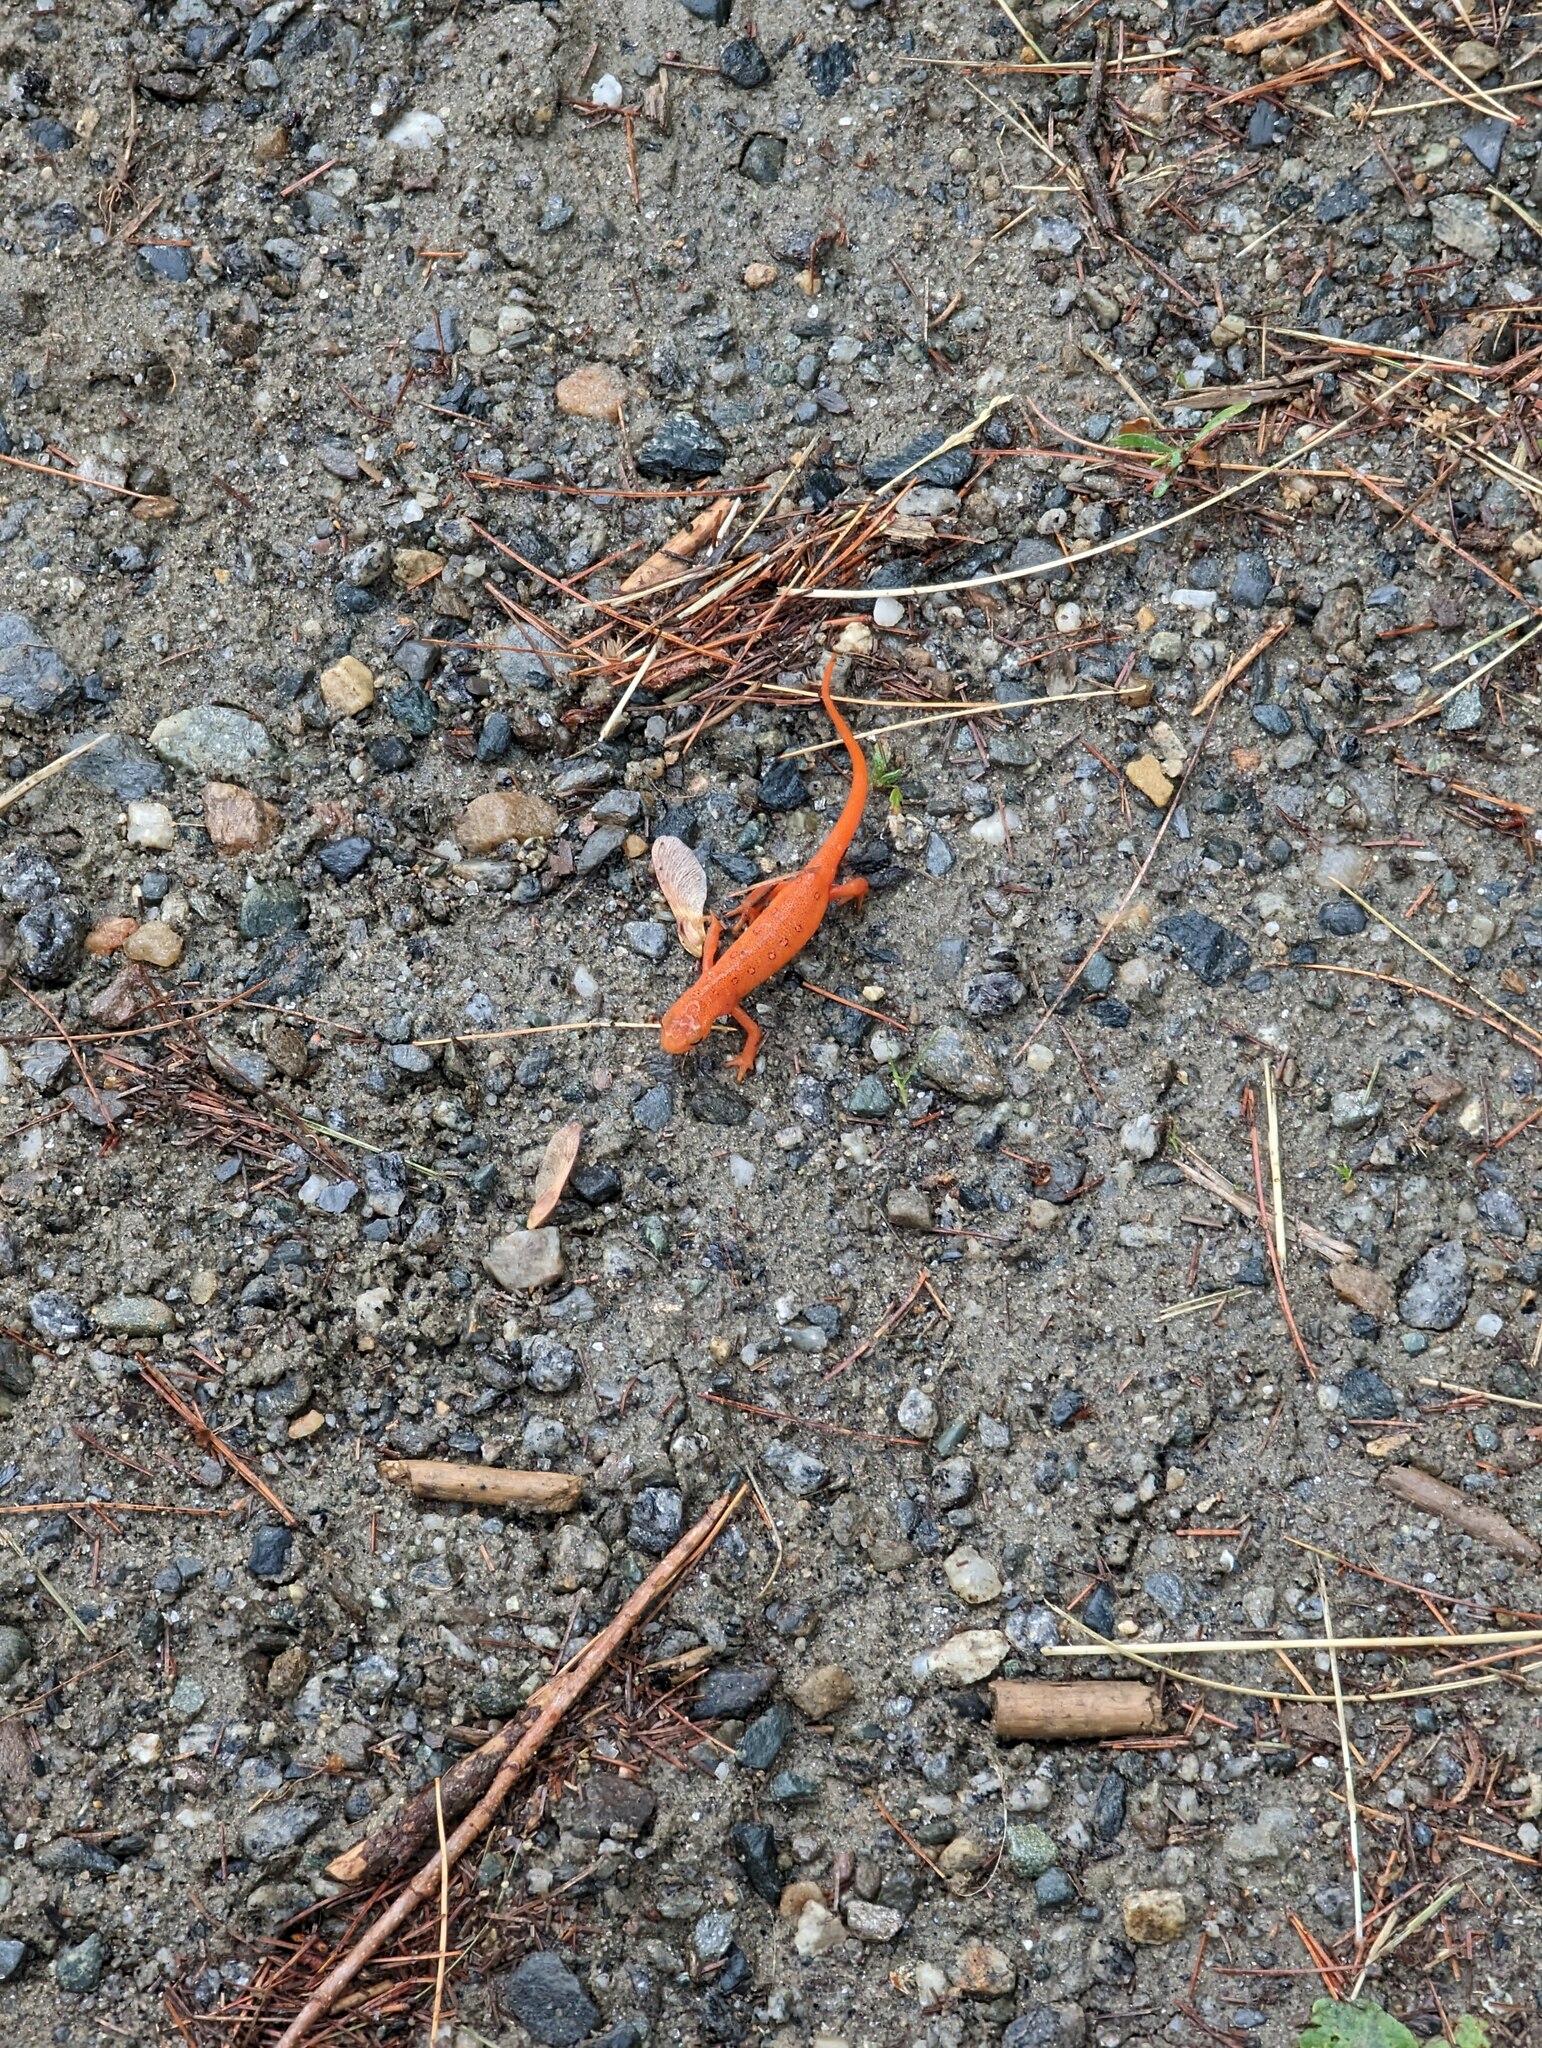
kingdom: Animalia
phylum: Chordata
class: Amphibia
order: Caudata
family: Salamandridae
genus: Notophthalmus
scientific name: Notophthalmus viridescens
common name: Eastern newt
